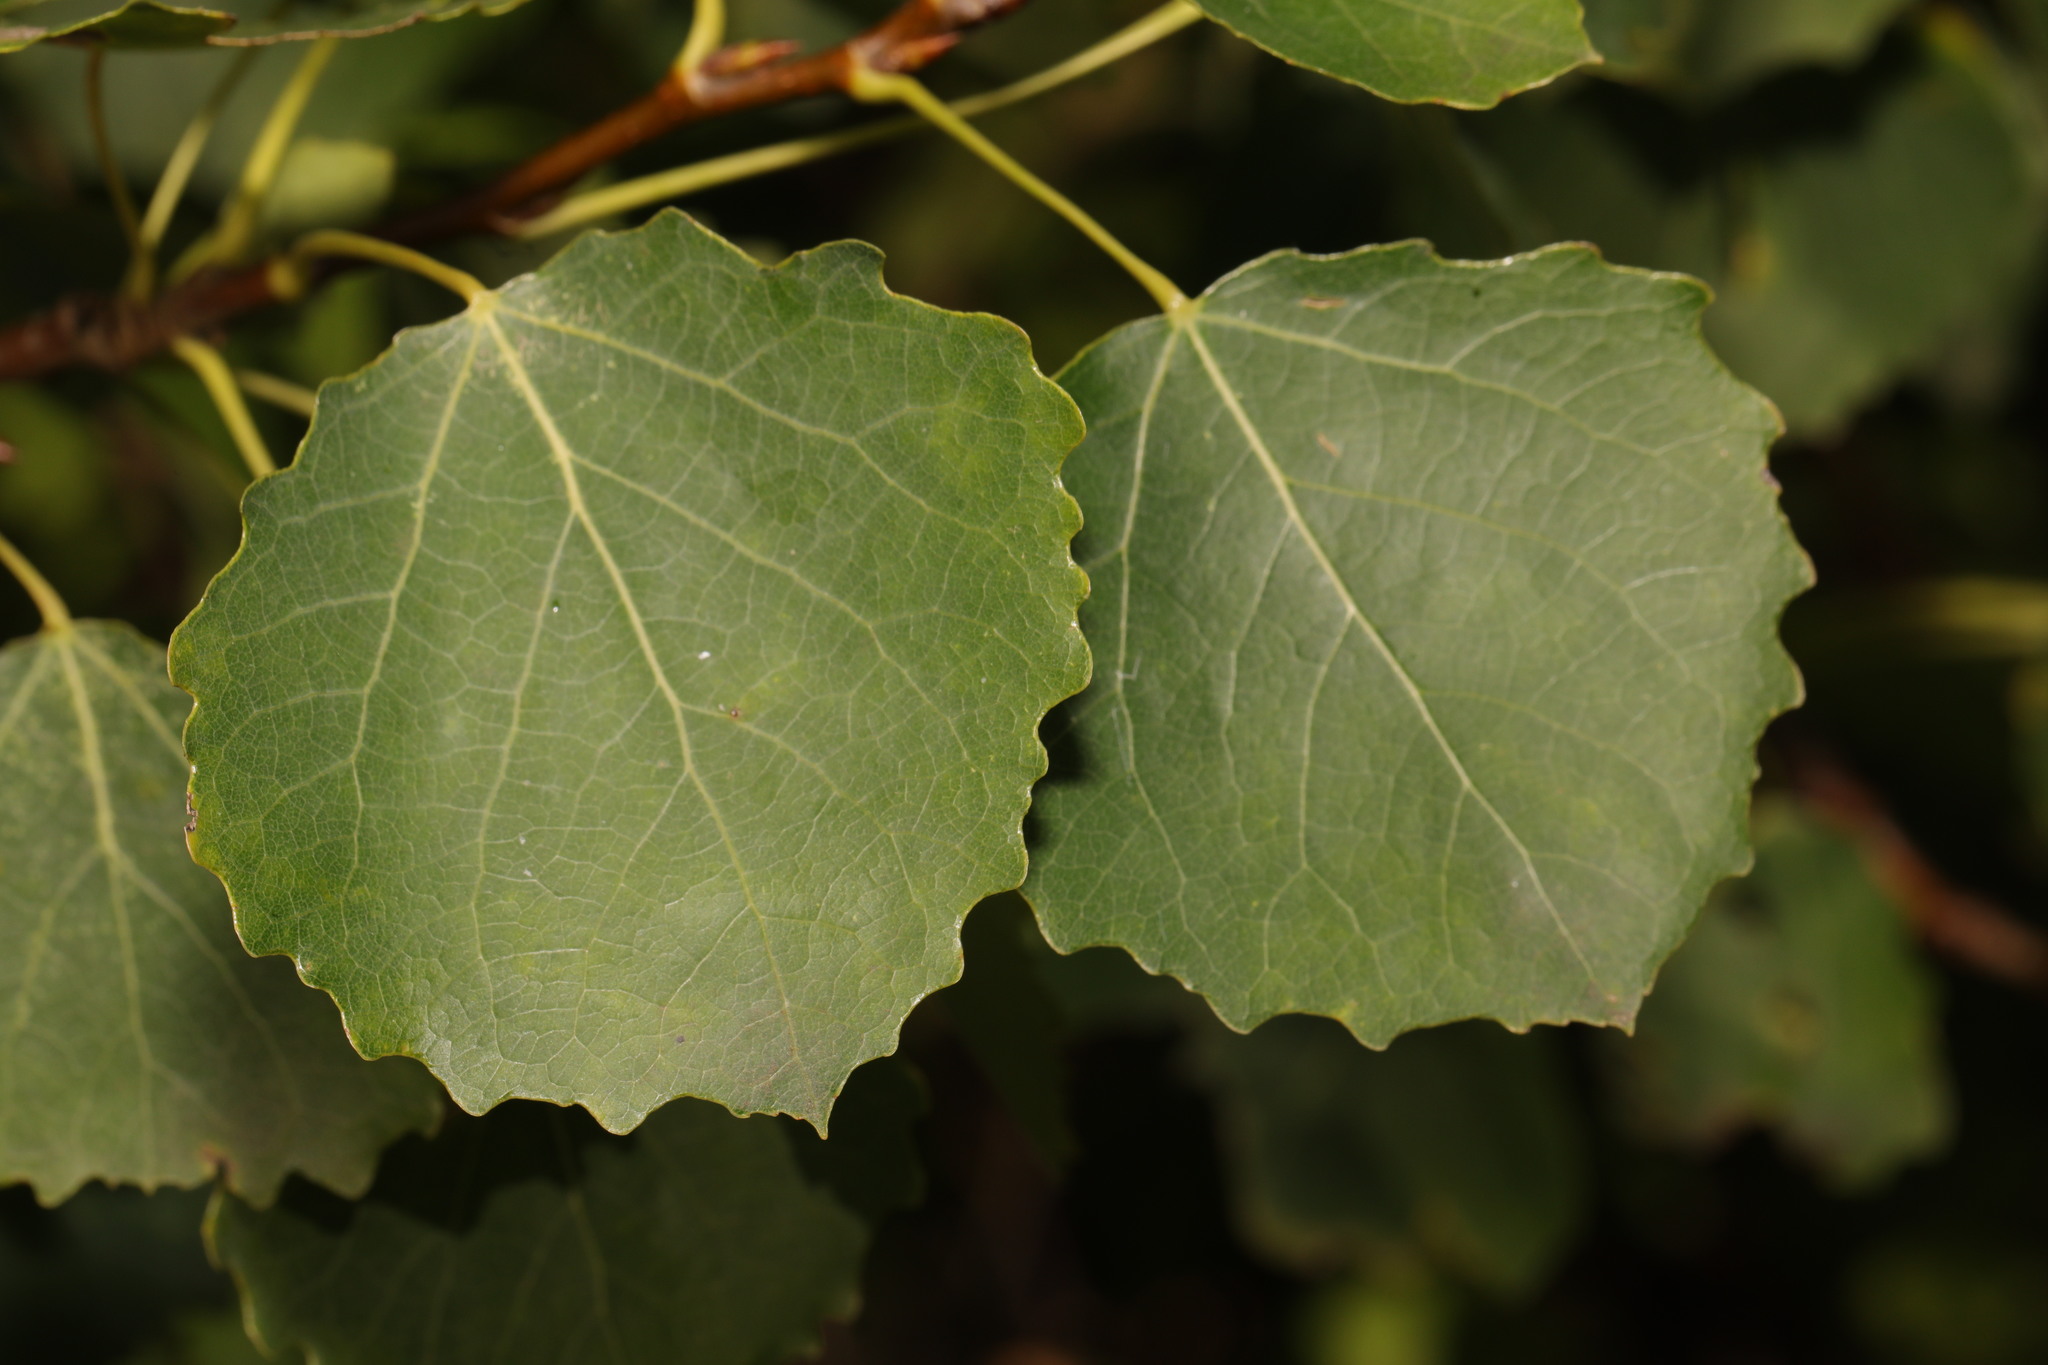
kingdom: Plantae
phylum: Tracheophyta
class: Magnoliopsida
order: Malpighiales
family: Salicaceae
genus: Populus
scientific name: Populus tremula
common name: European aspen
